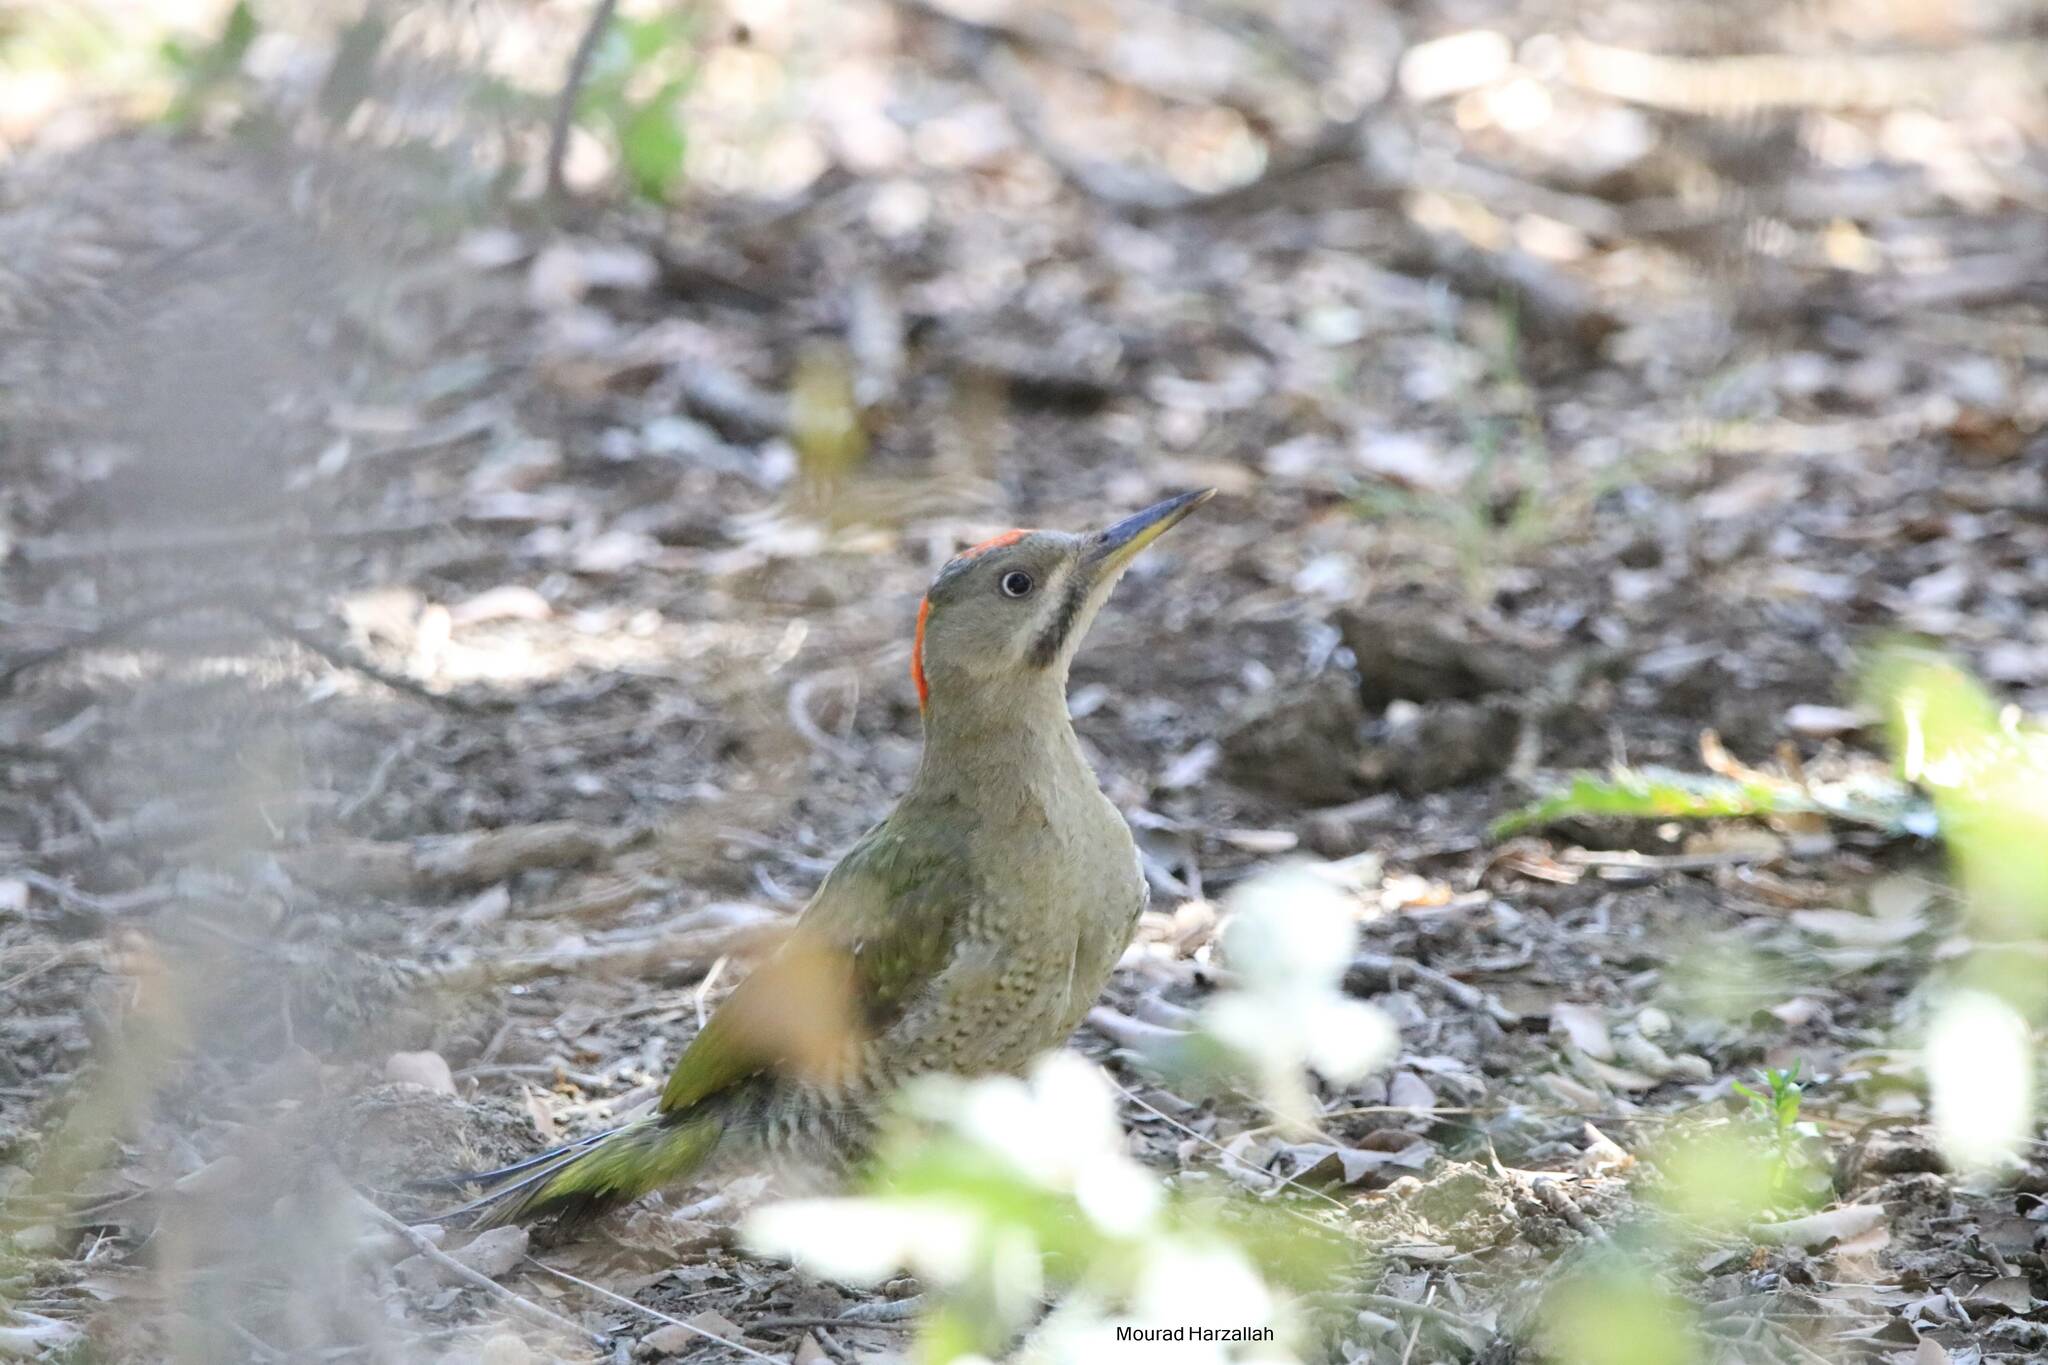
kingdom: Animalia
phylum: Chordata
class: Aves
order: Piciformes
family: Picidae
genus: Picus
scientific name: Picus vaillantii
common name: Levaillant's woodpecker
